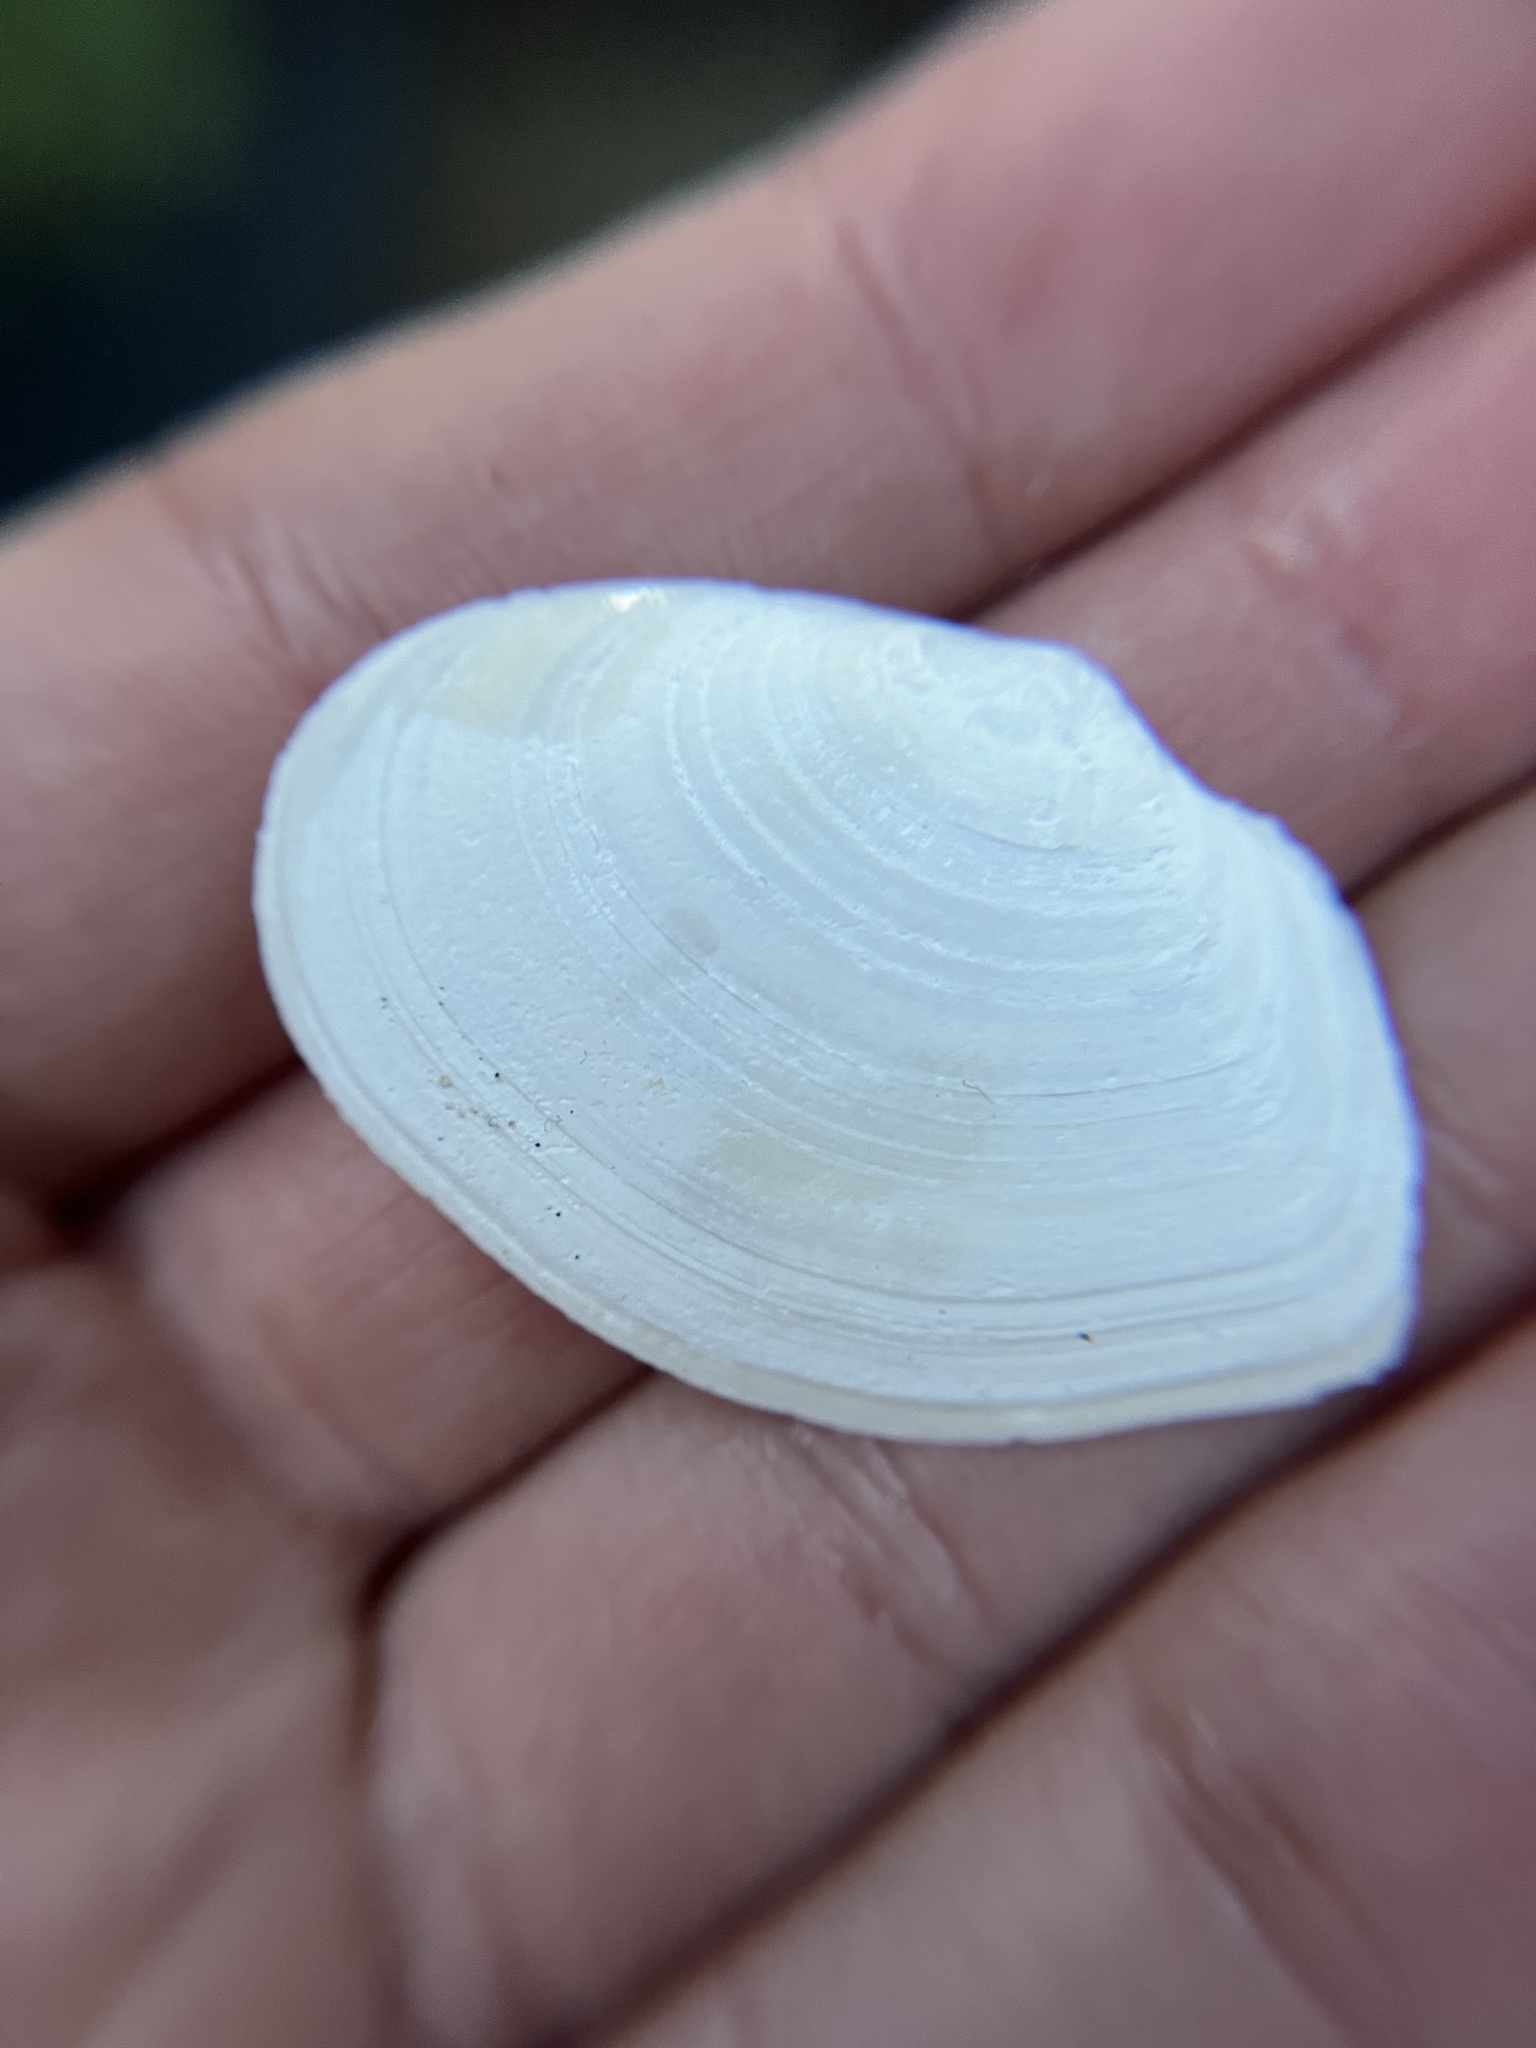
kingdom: Animalia
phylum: Mollusca
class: Bivalvia
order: Cardiida
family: Tellinidae
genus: Macoma
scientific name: Macoma nasuta
